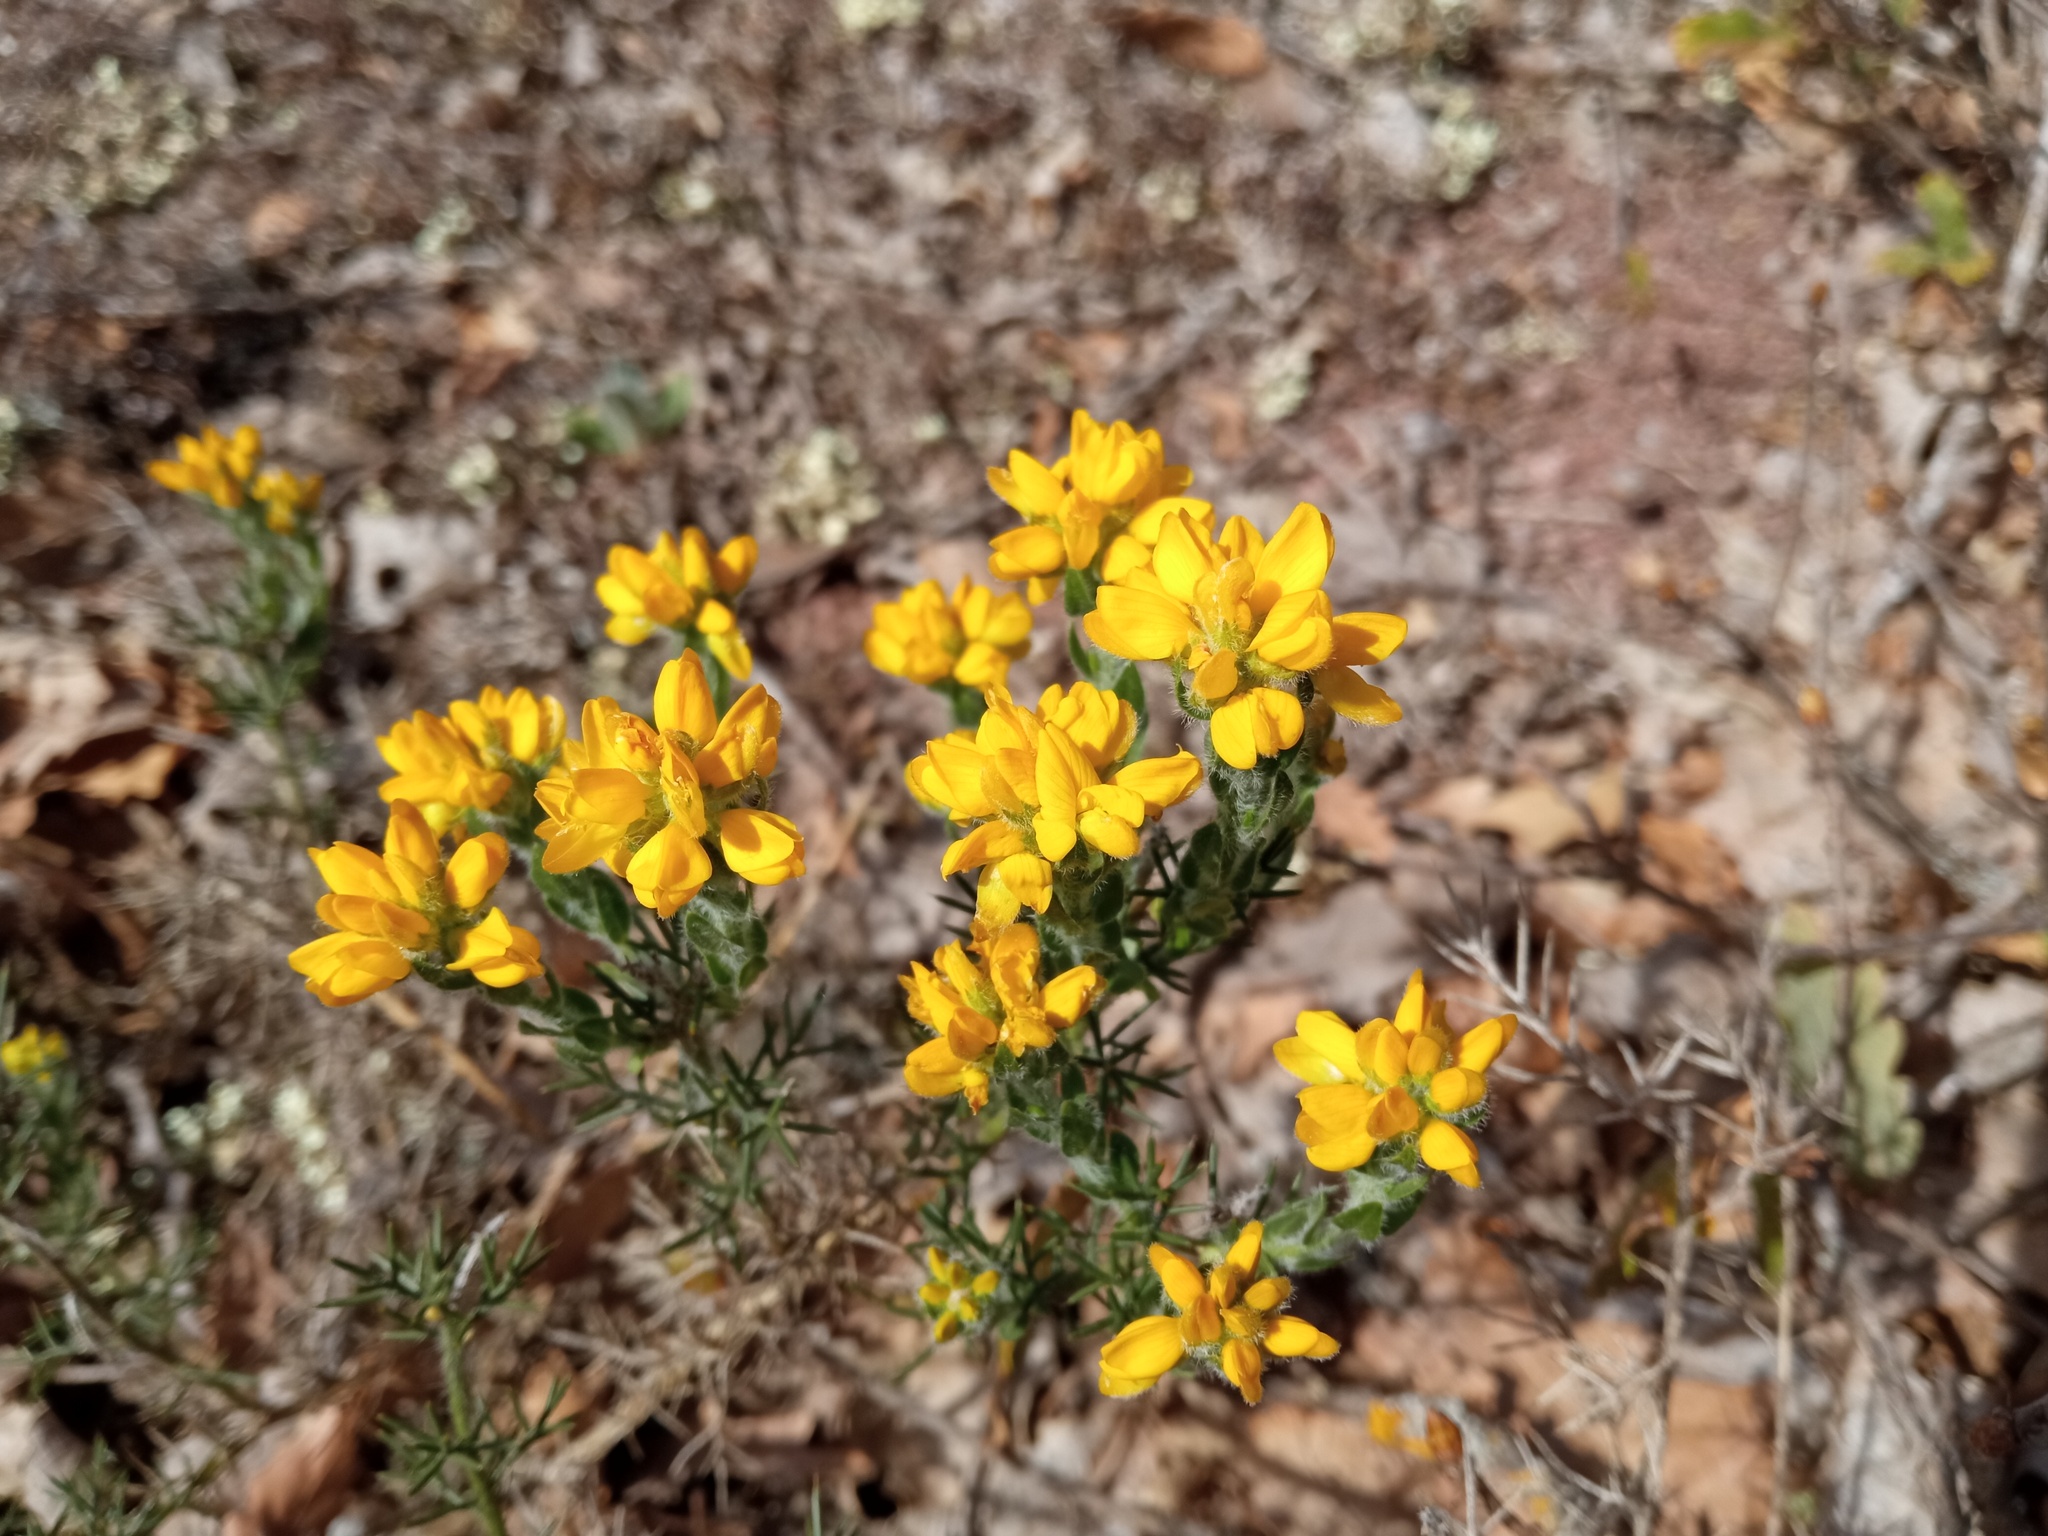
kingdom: Plantae
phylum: Tracheophyta
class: Magnoliopsida
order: Fabales
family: Fabaceae
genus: Genista
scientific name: Genista hispanica
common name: Spanish gorse
